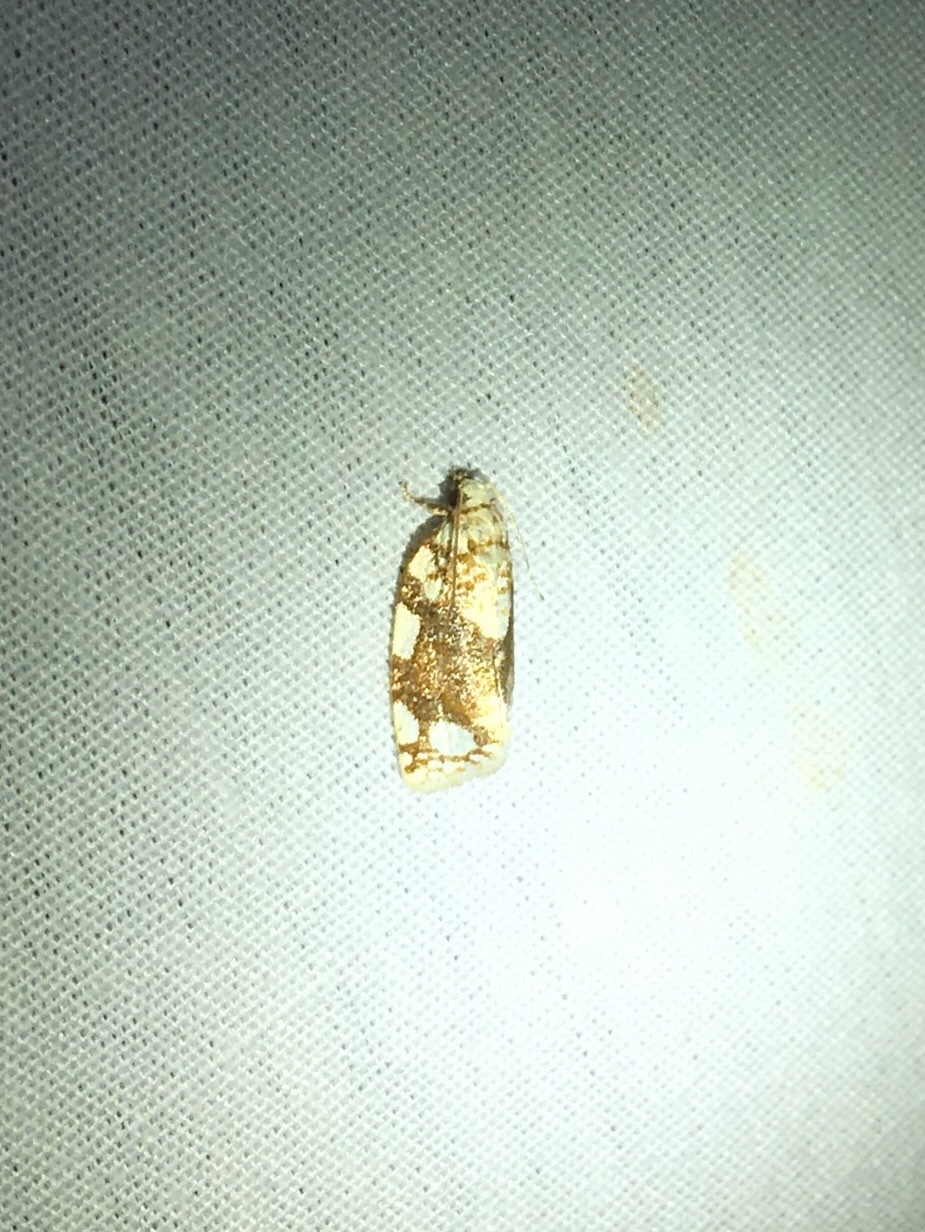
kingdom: Animalia
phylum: Arthropoda
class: Insecta
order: Lepidoptera
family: Tortricidae
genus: Argyrotaenia
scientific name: Argyrotaenia alisellana
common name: White-spotted leafroller moth
